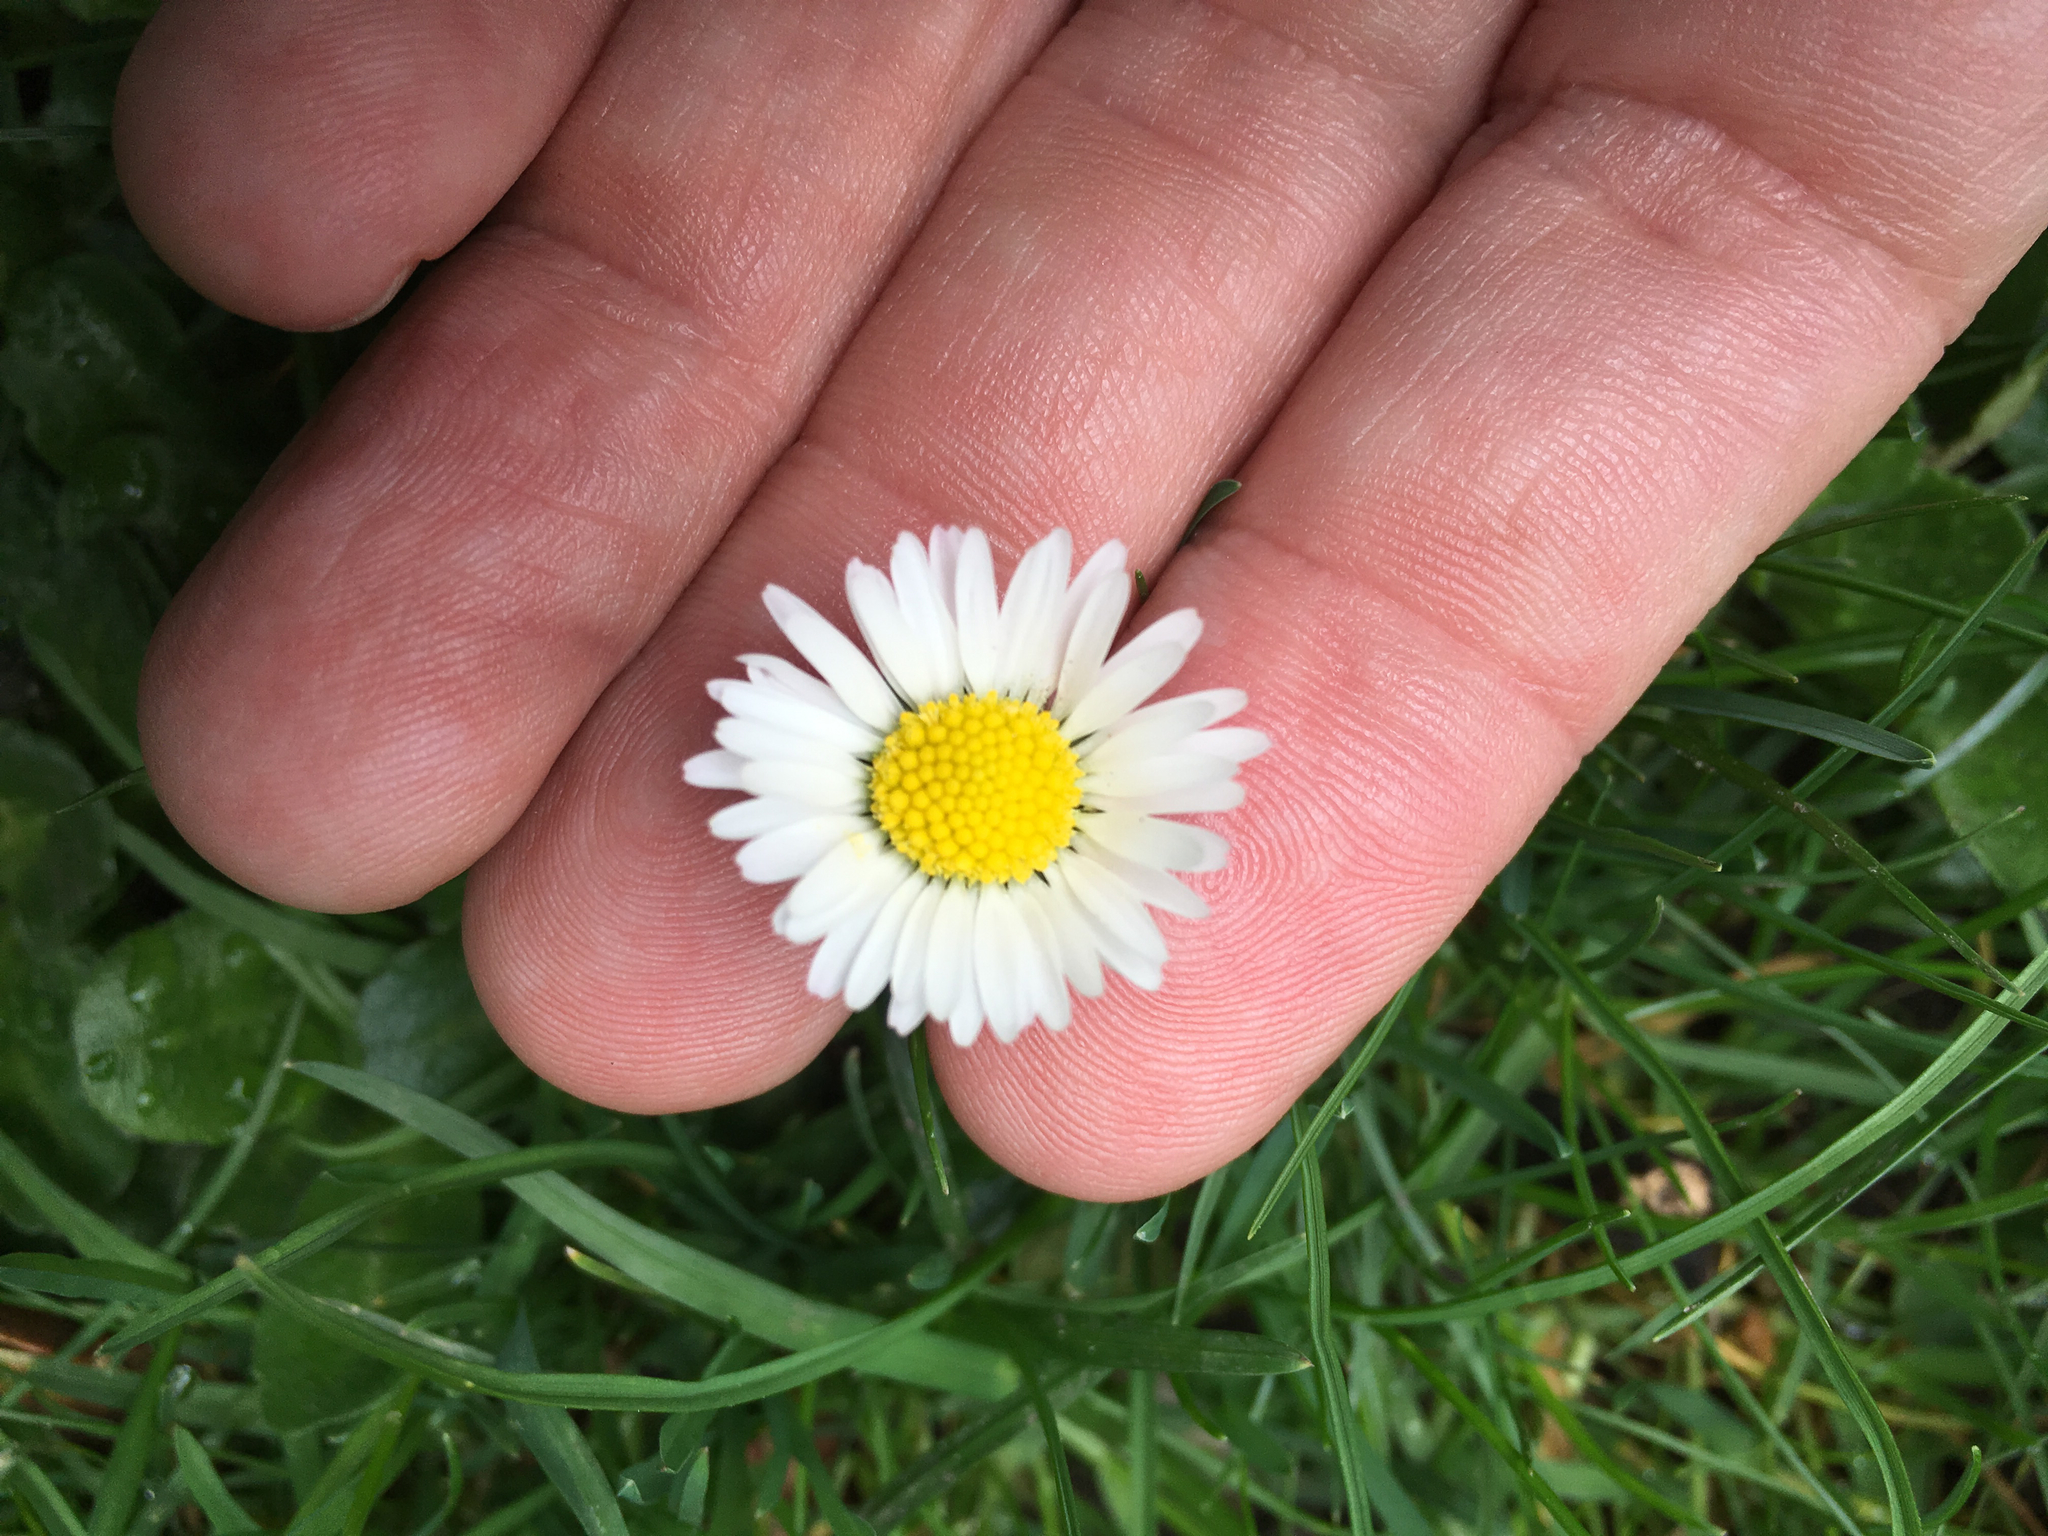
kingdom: Plantae
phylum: Tracheophyta
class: Magnoliopsida
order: Asterales
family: Asteraceae
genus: Bellis
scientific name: Bellis perennis
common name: Lawndaisy
